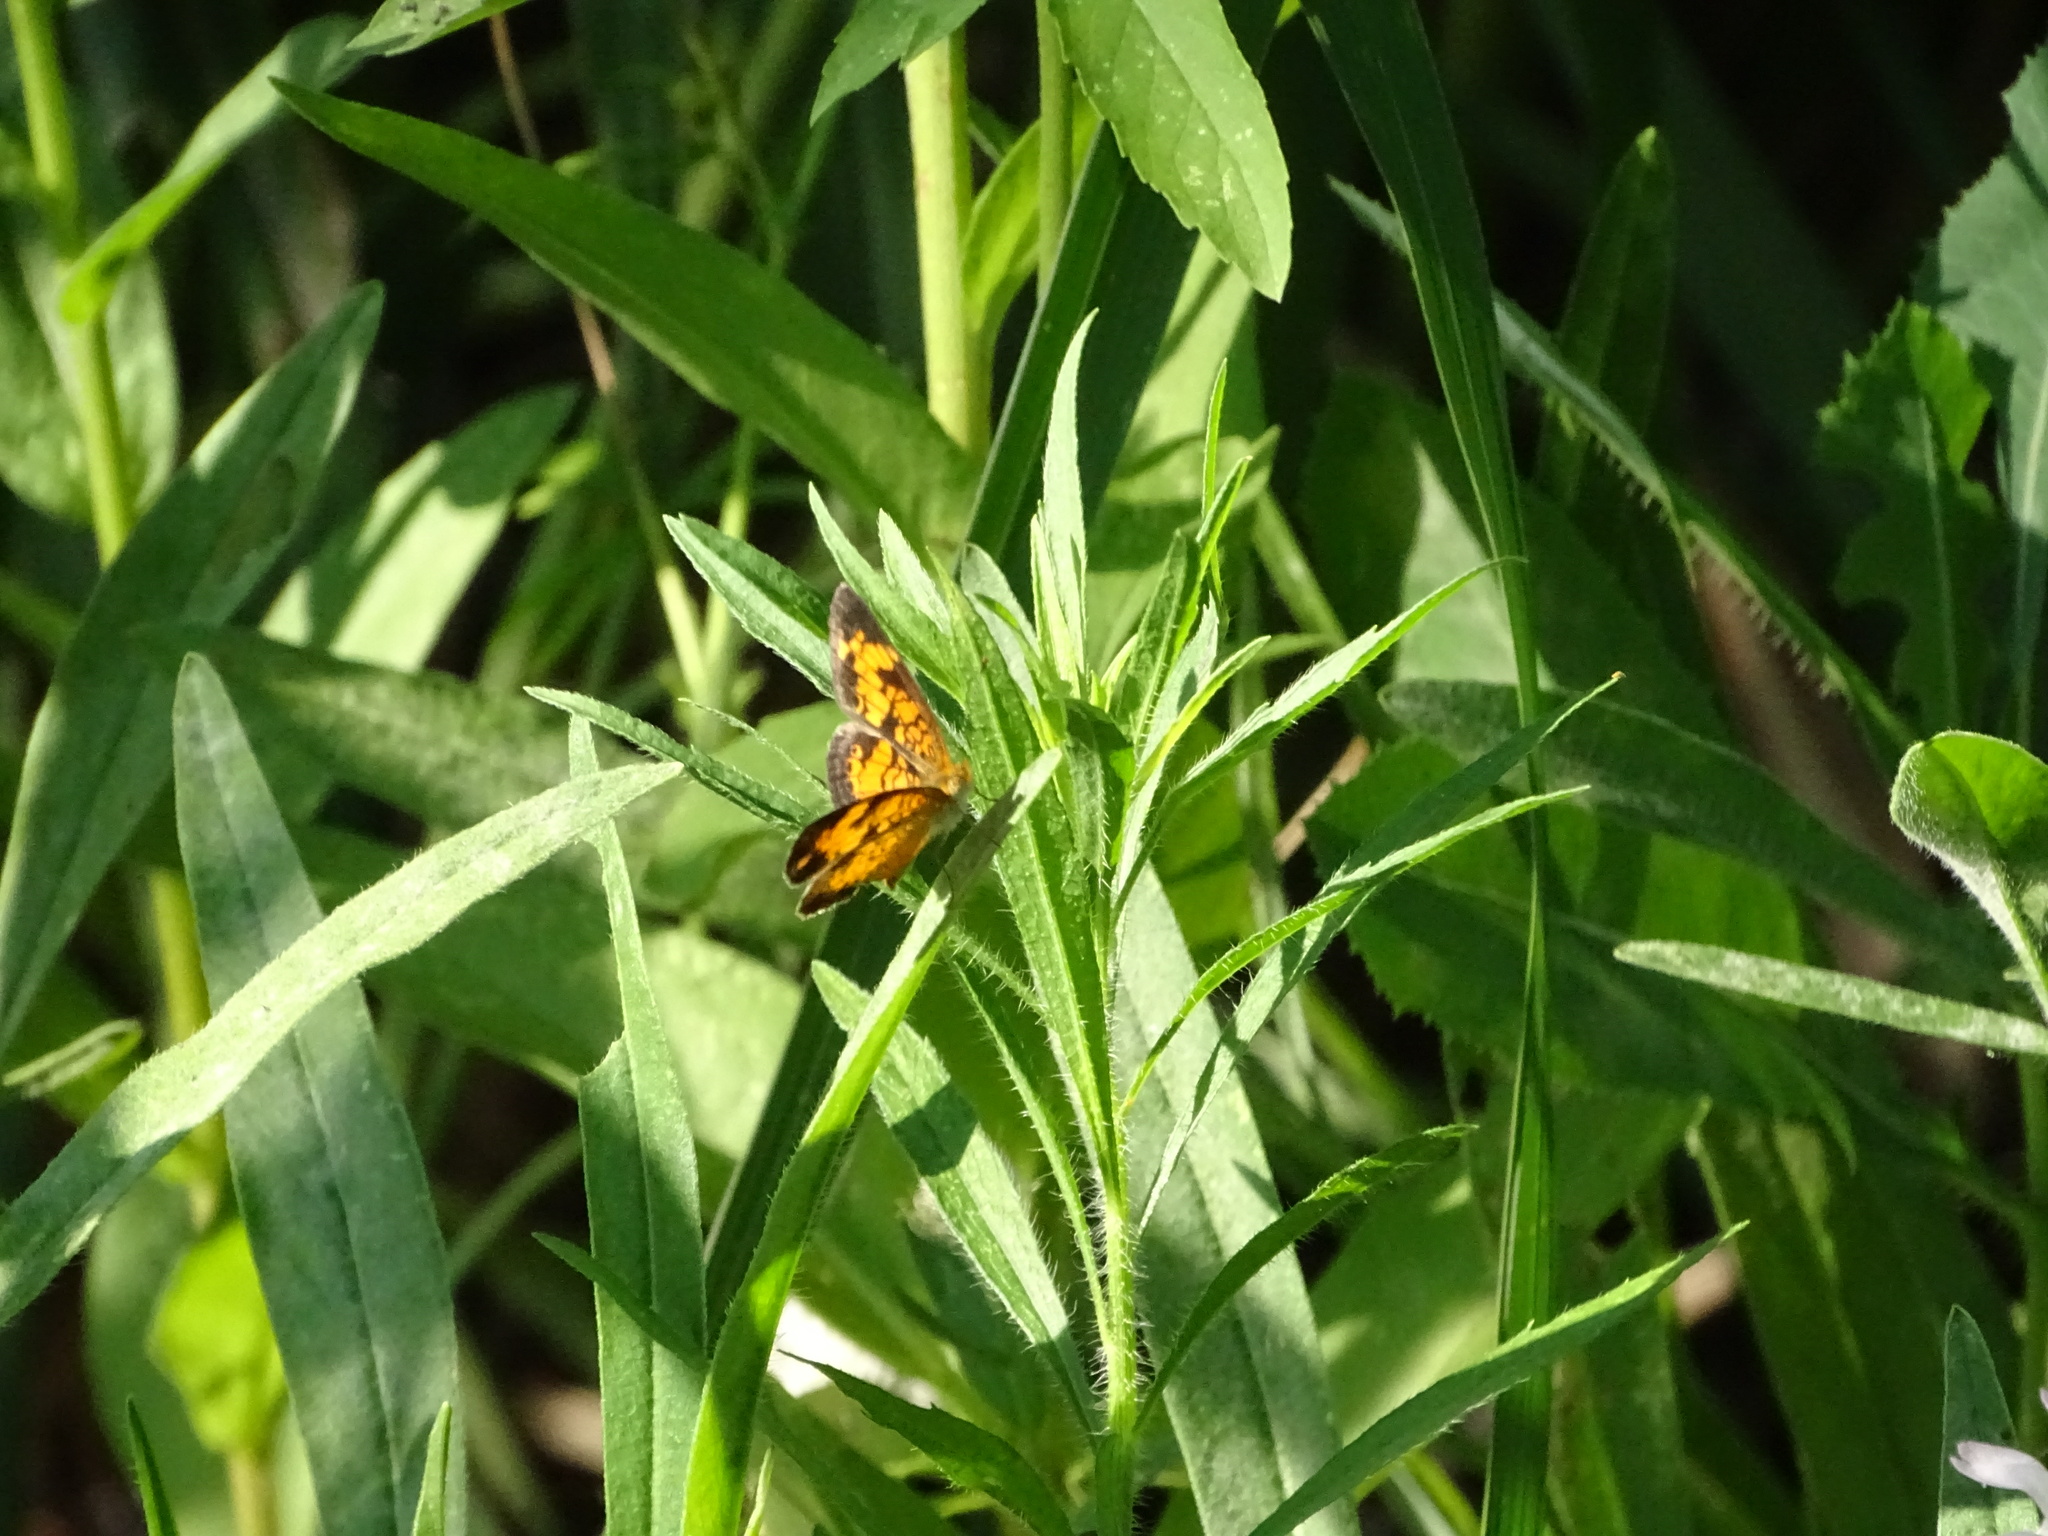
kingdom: Animalia
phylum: Arthropoda
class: Insecta
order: Lepidoptera
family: Nymphalidae
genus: Phyciodes
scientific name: Phyciodes tharos
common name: Pearl crescent
